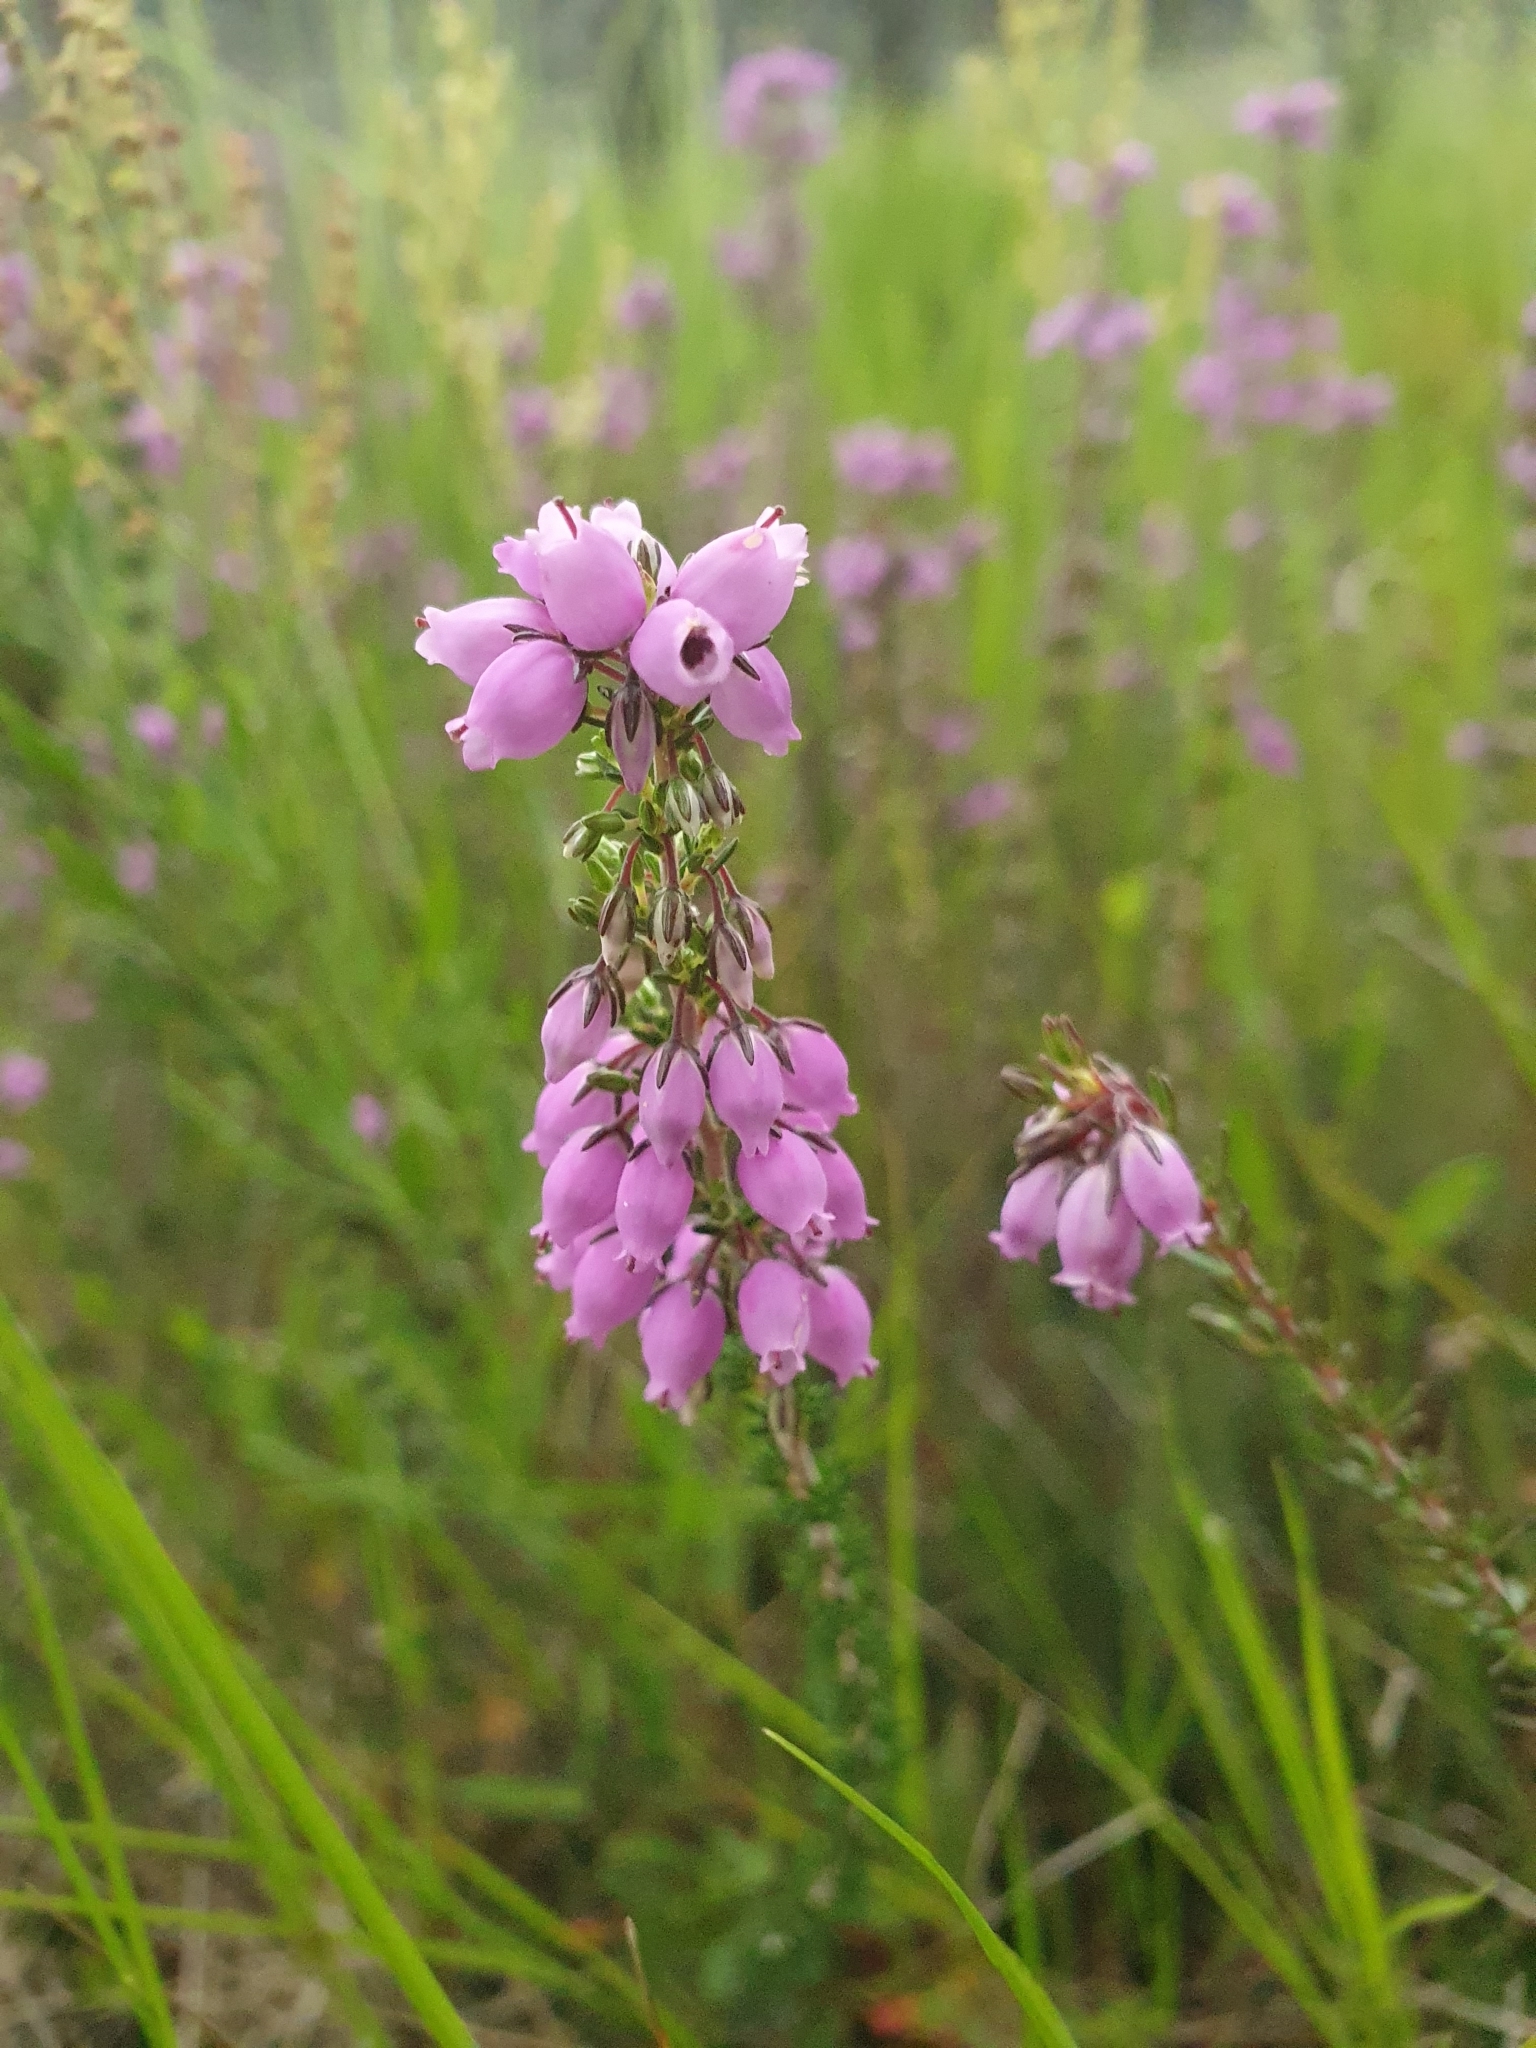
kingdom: Plantae
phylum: Tracheophyta
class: Magnoliopsida
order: Ericales
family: Ericaceae
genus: Erica
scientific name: Erica cinerea
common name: Bell heather
